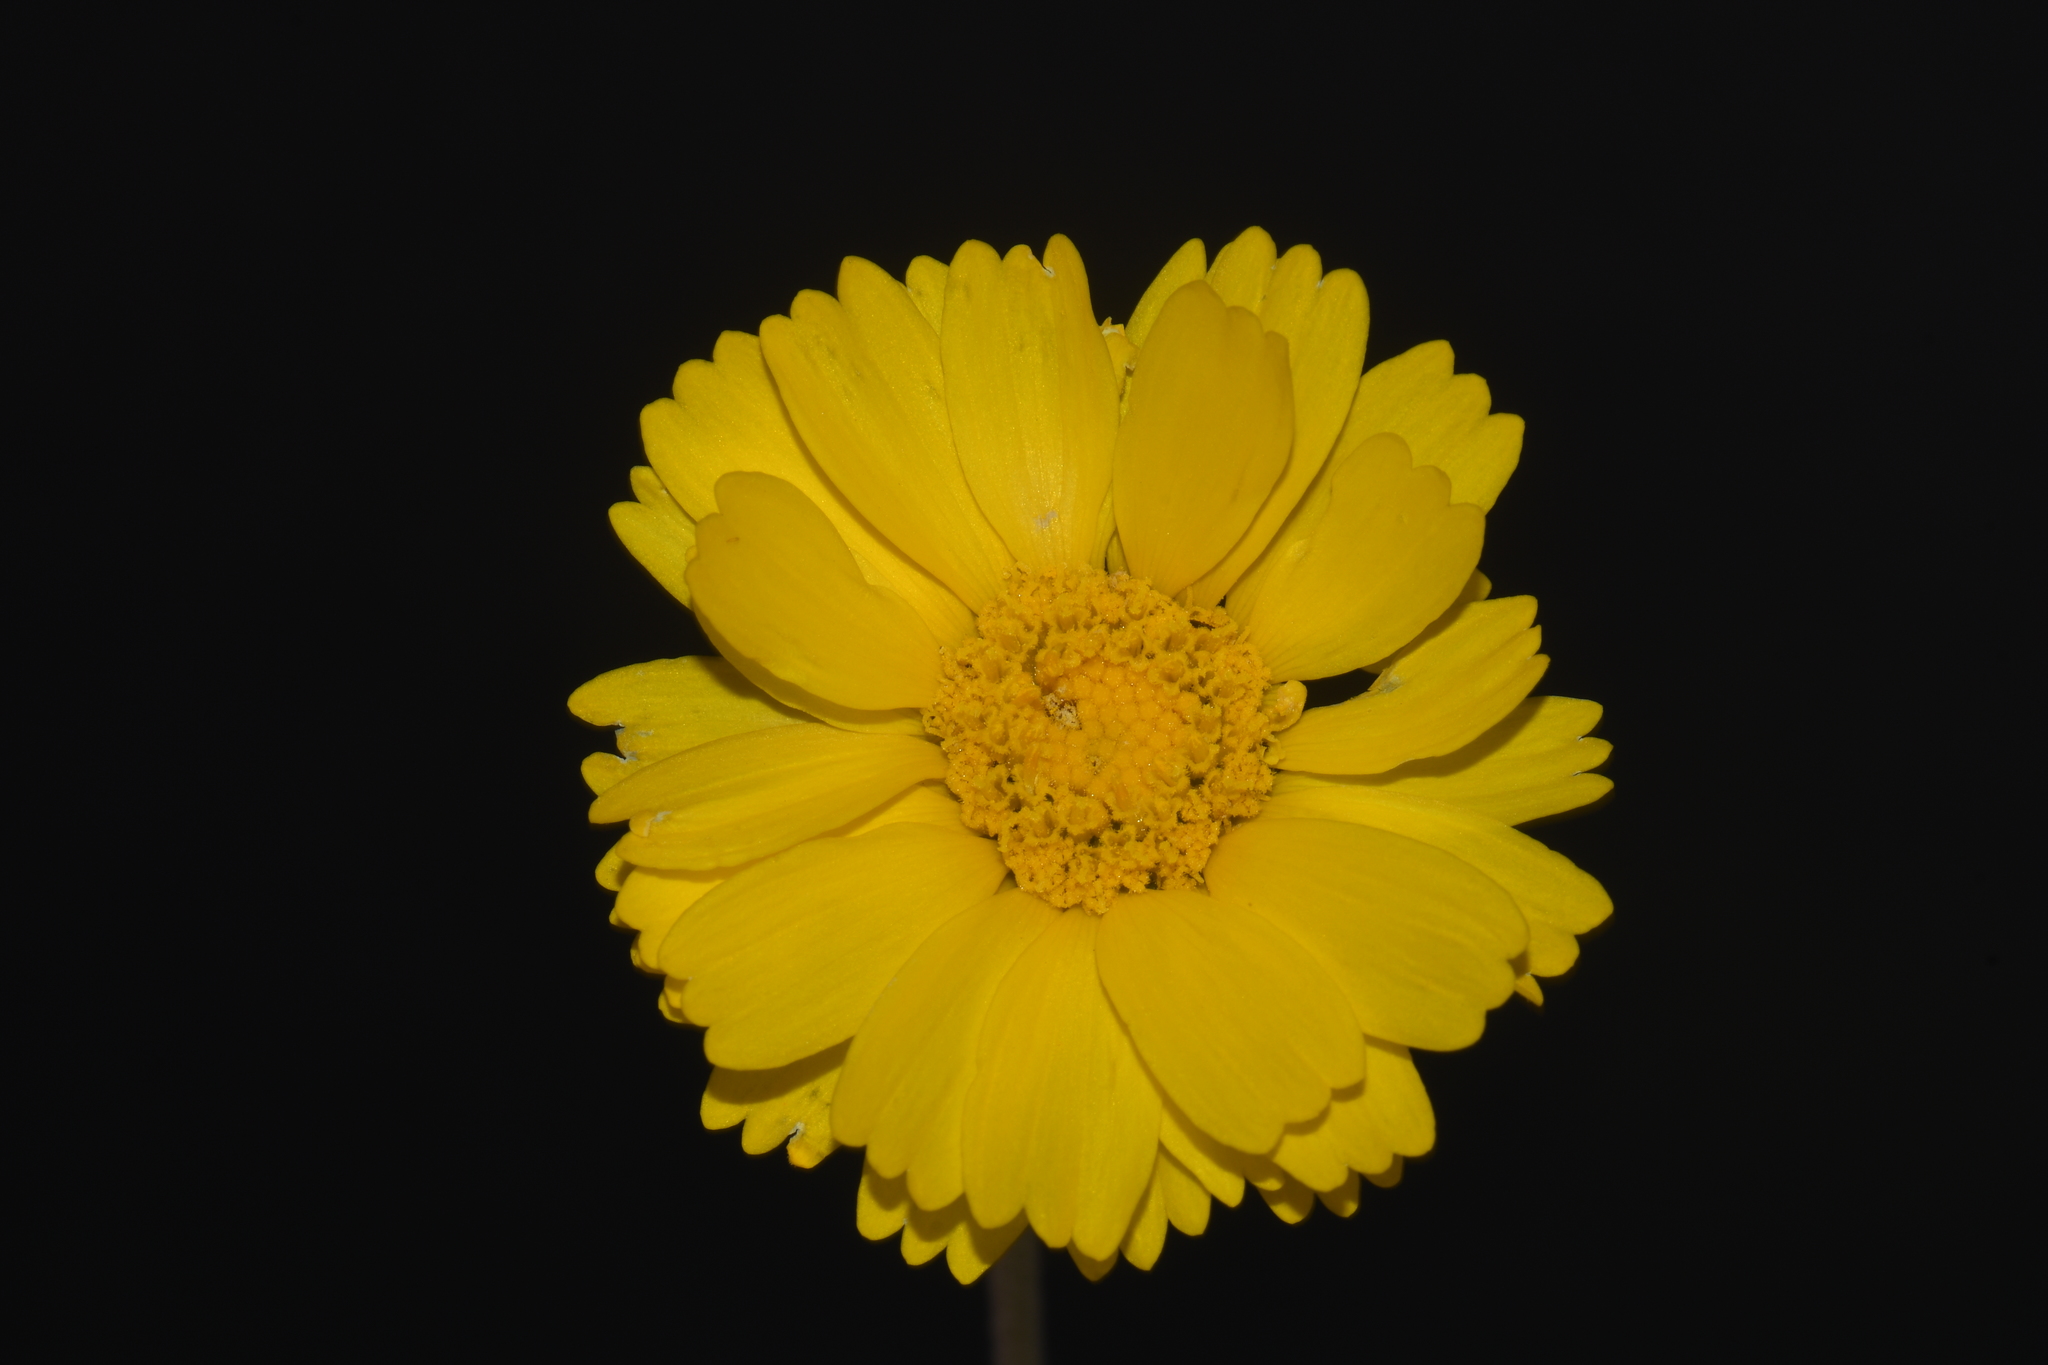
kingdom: Plantae
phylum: Tracheophyta
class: Magnoliopsida
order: Asterales
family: Asteraceae
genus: Baileya
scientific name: Baileya multiradiata
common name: Desert-marigold
